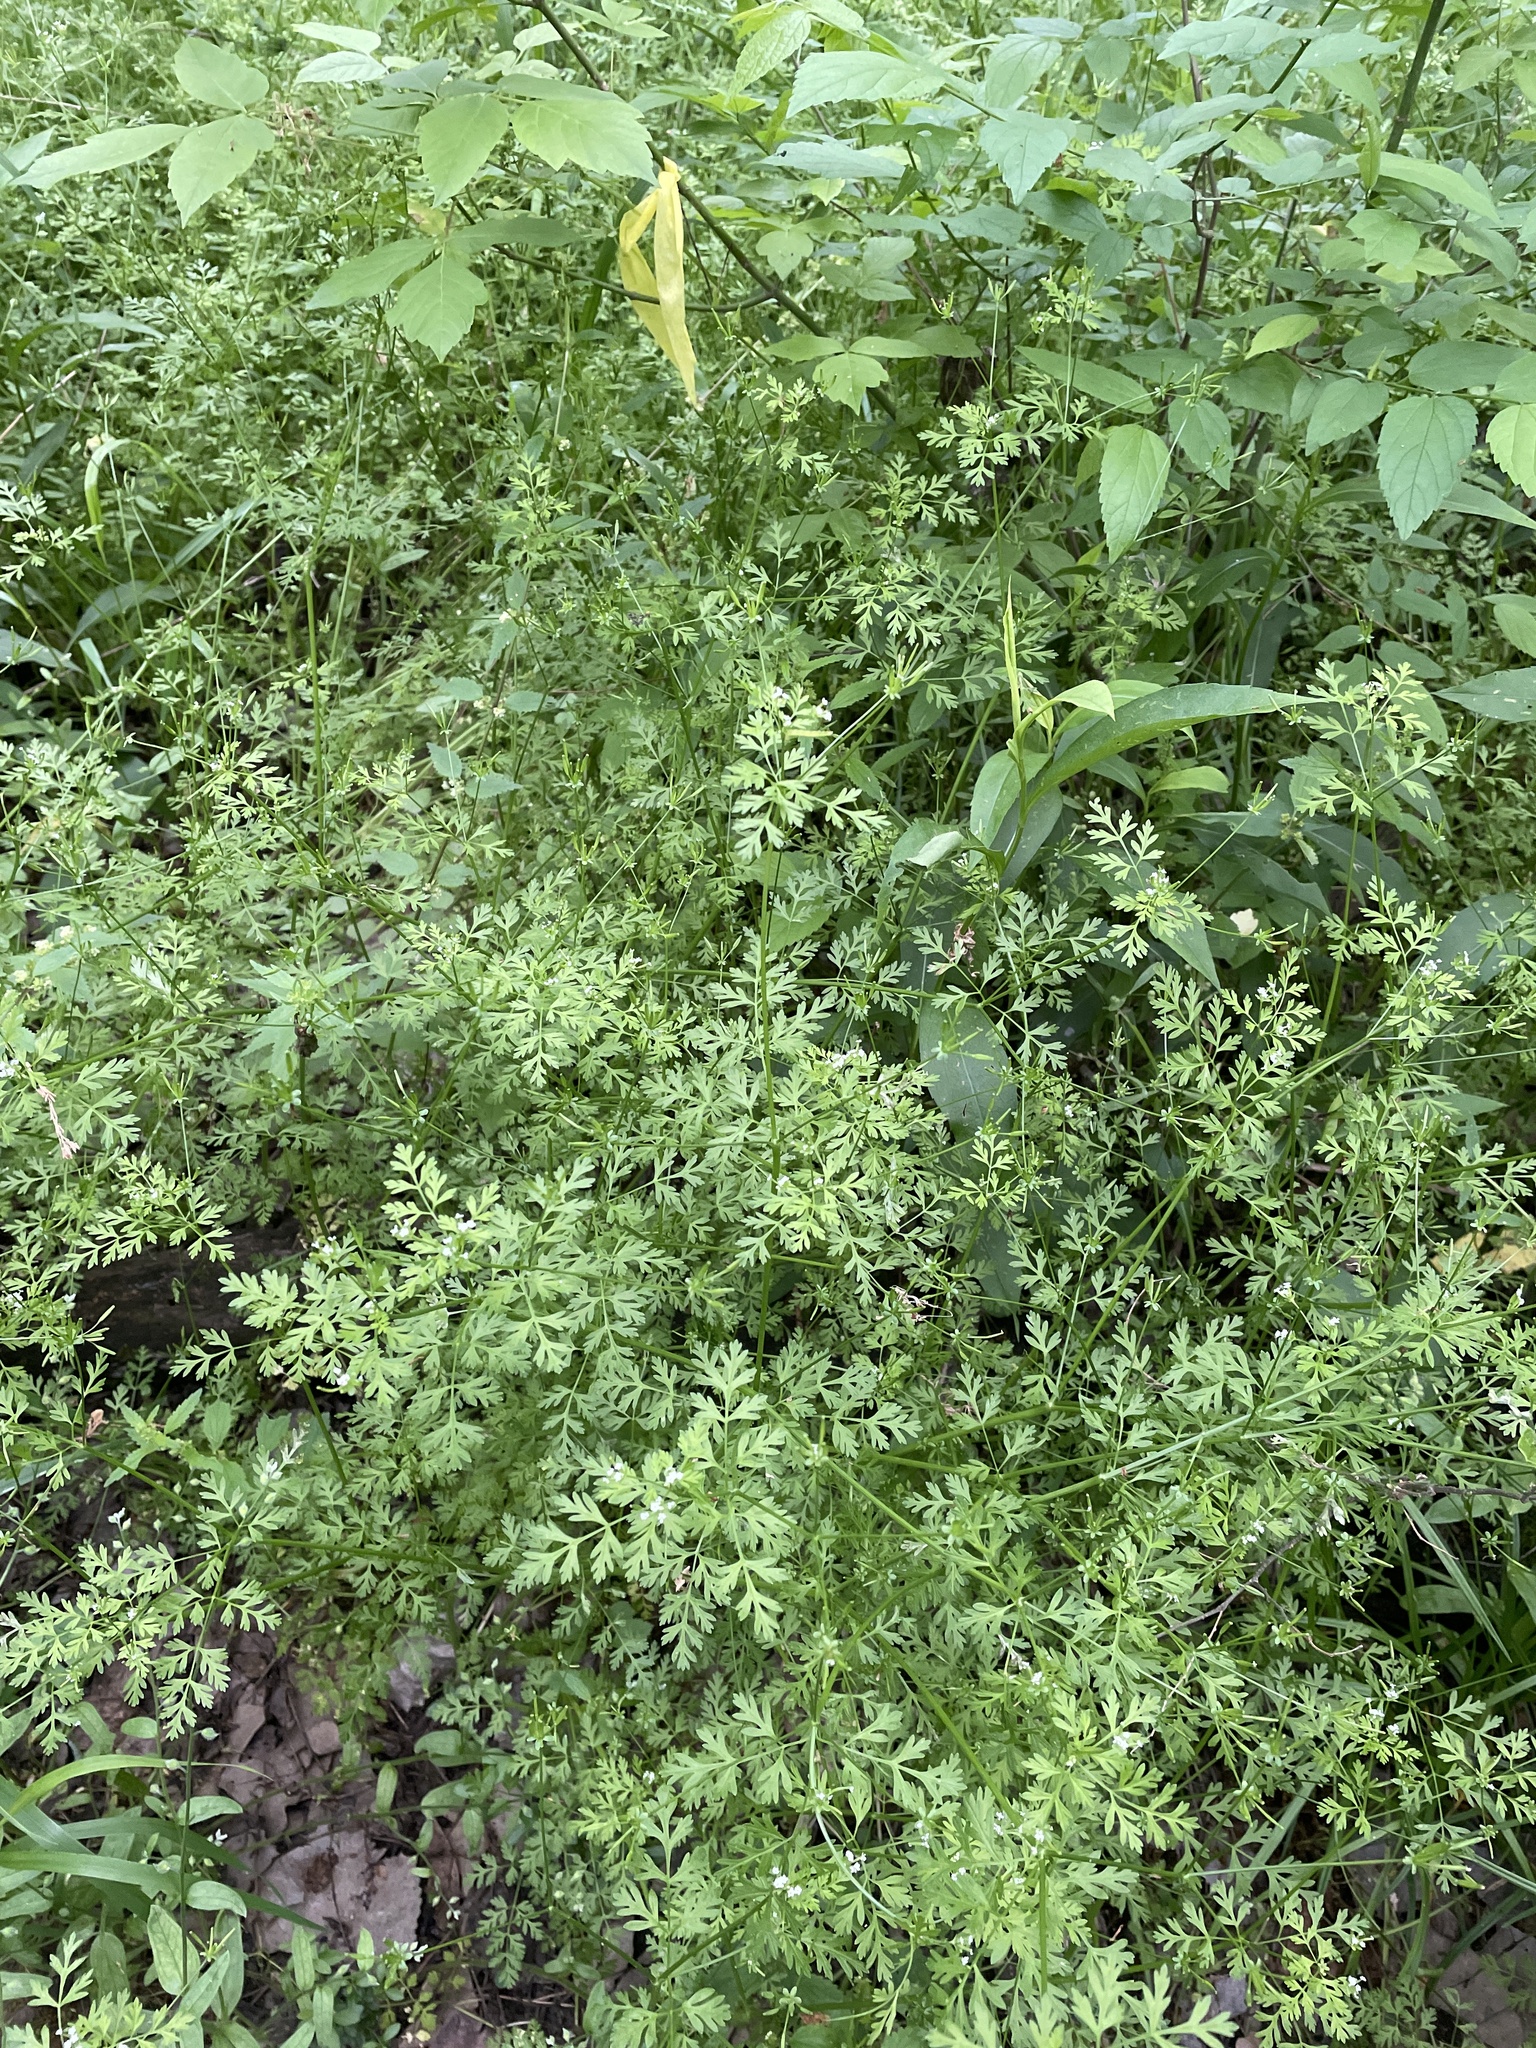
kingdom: Plantae
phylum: Tracheophyta
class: Magnoliopsida
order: Apiales
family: Apiaceae
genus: Chaerophyllum
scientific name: Chaerophyllum tainturieri
